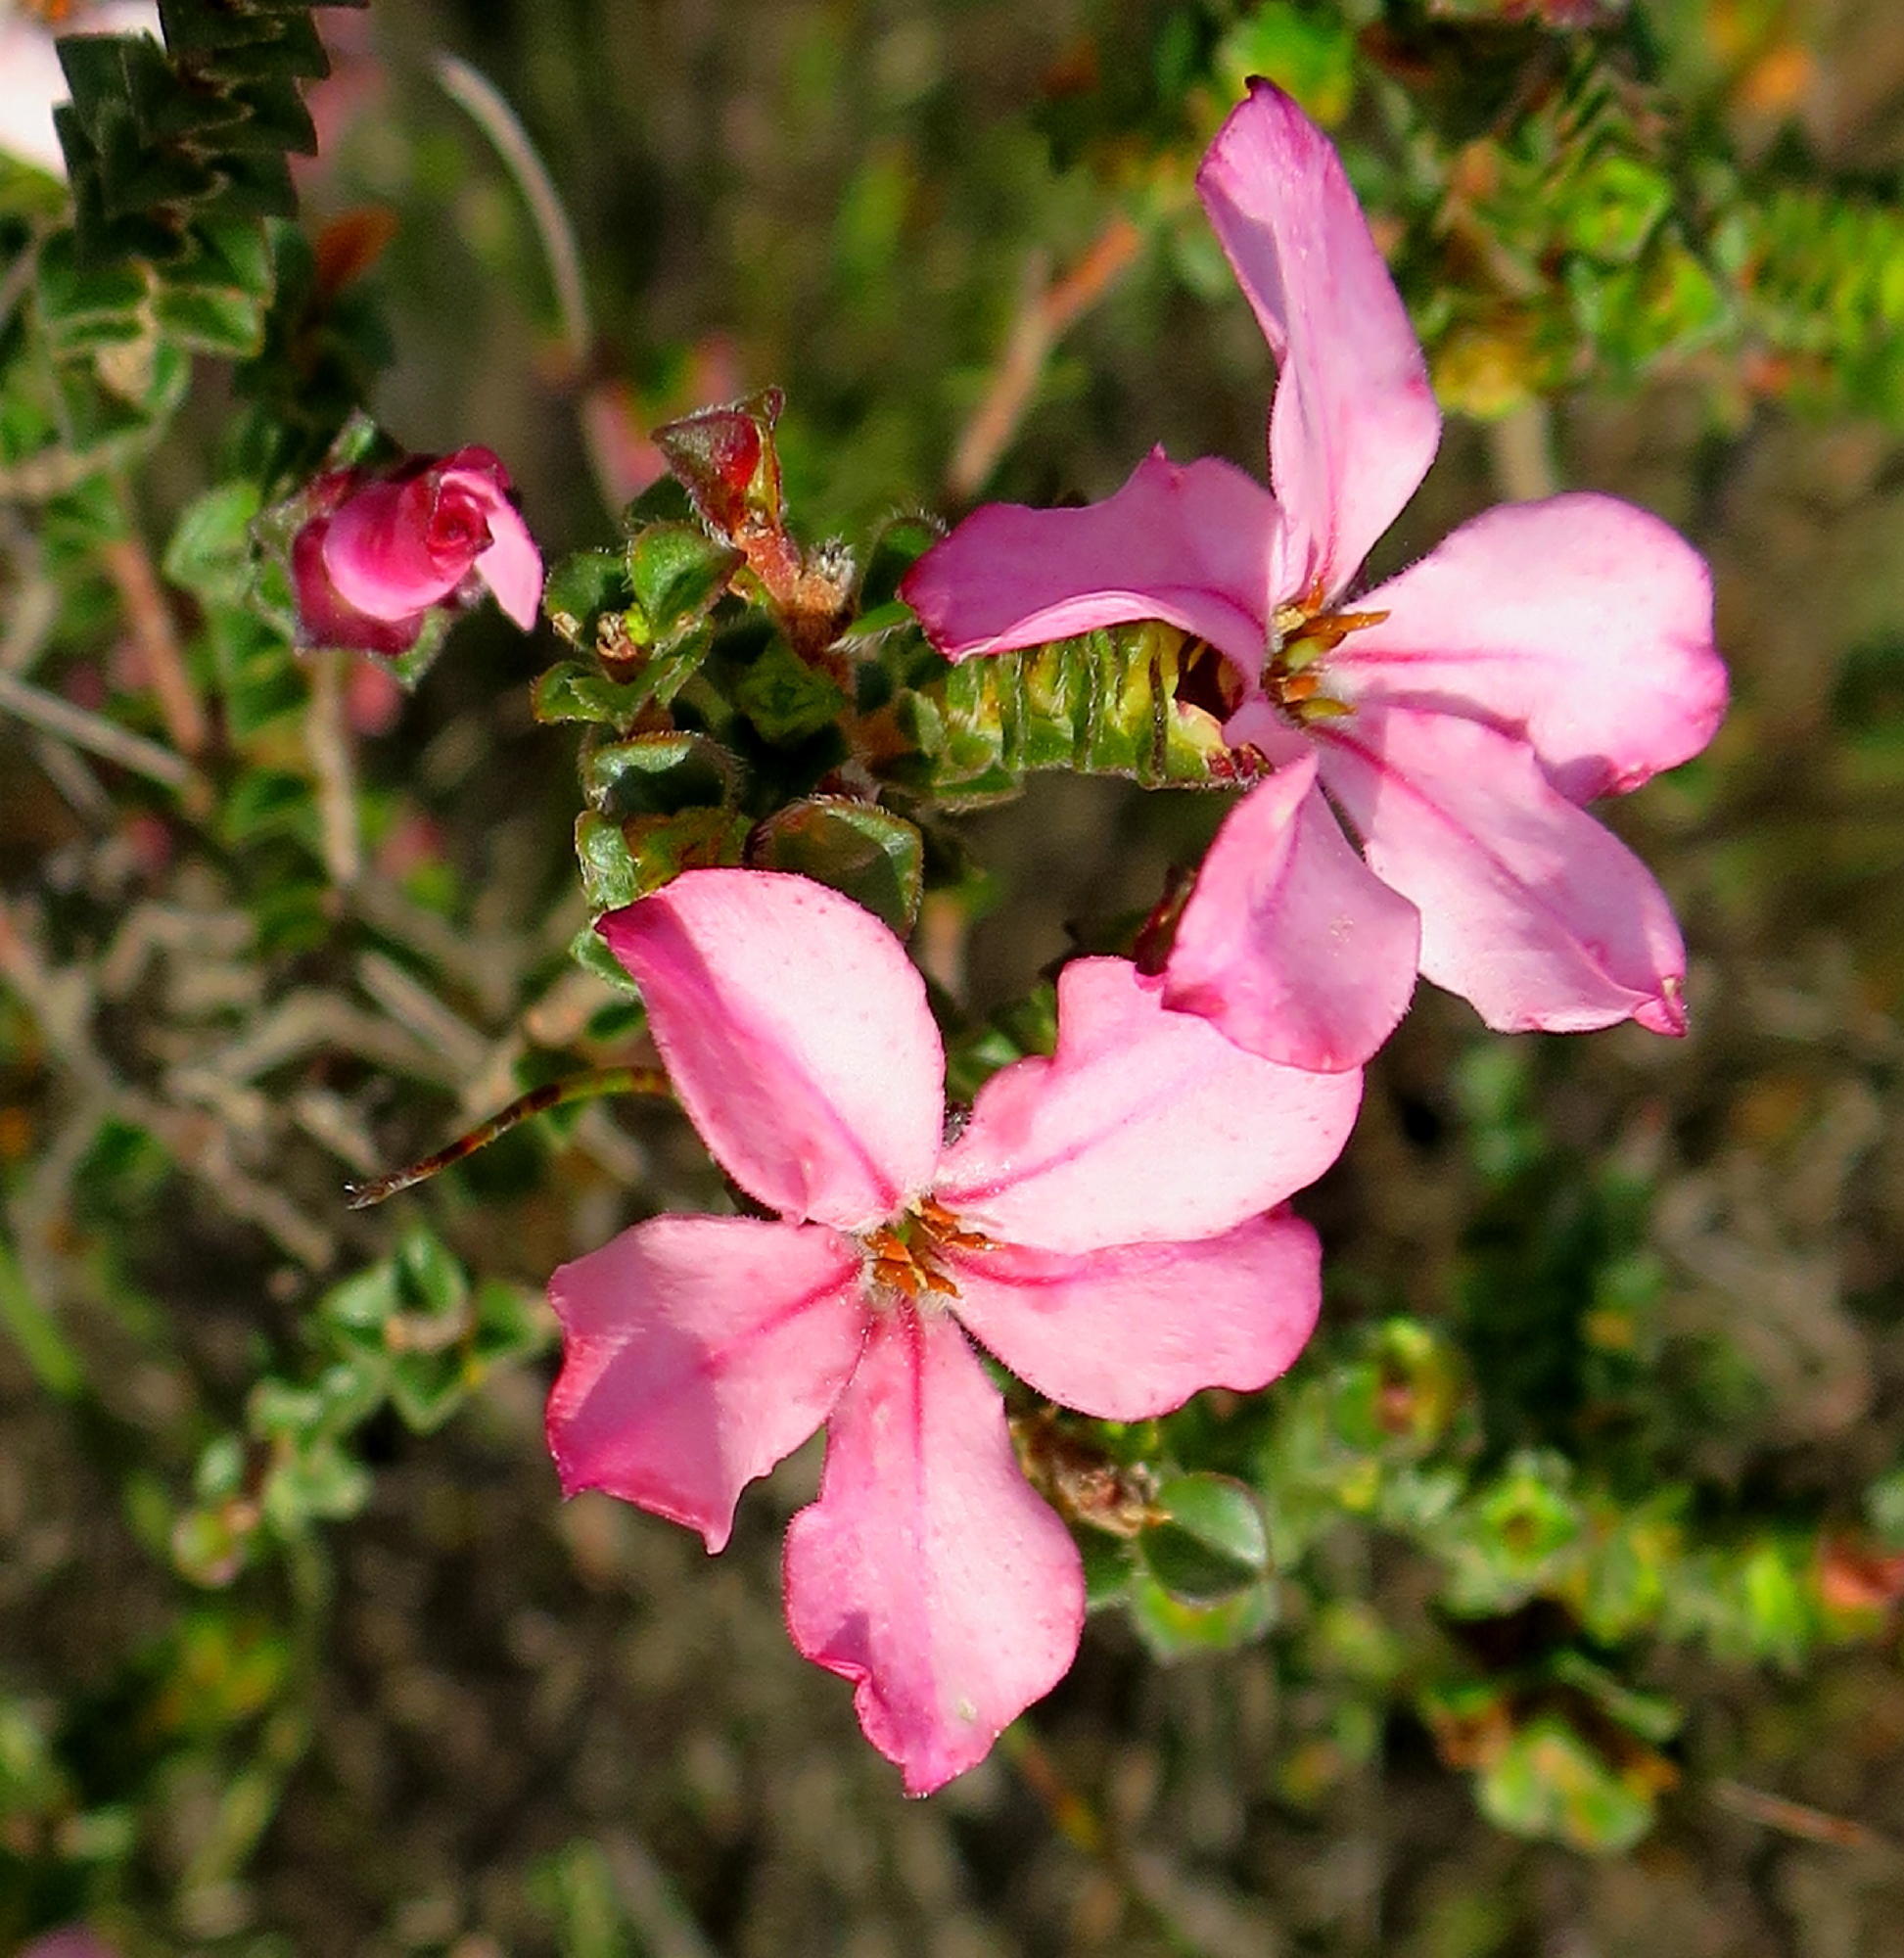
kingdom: Plantae
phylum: Tracheophyta
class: Magnoliopsida
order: Sapindales
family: Rutaceae
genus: Acmadenia
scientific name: Acmadenia tetragona
